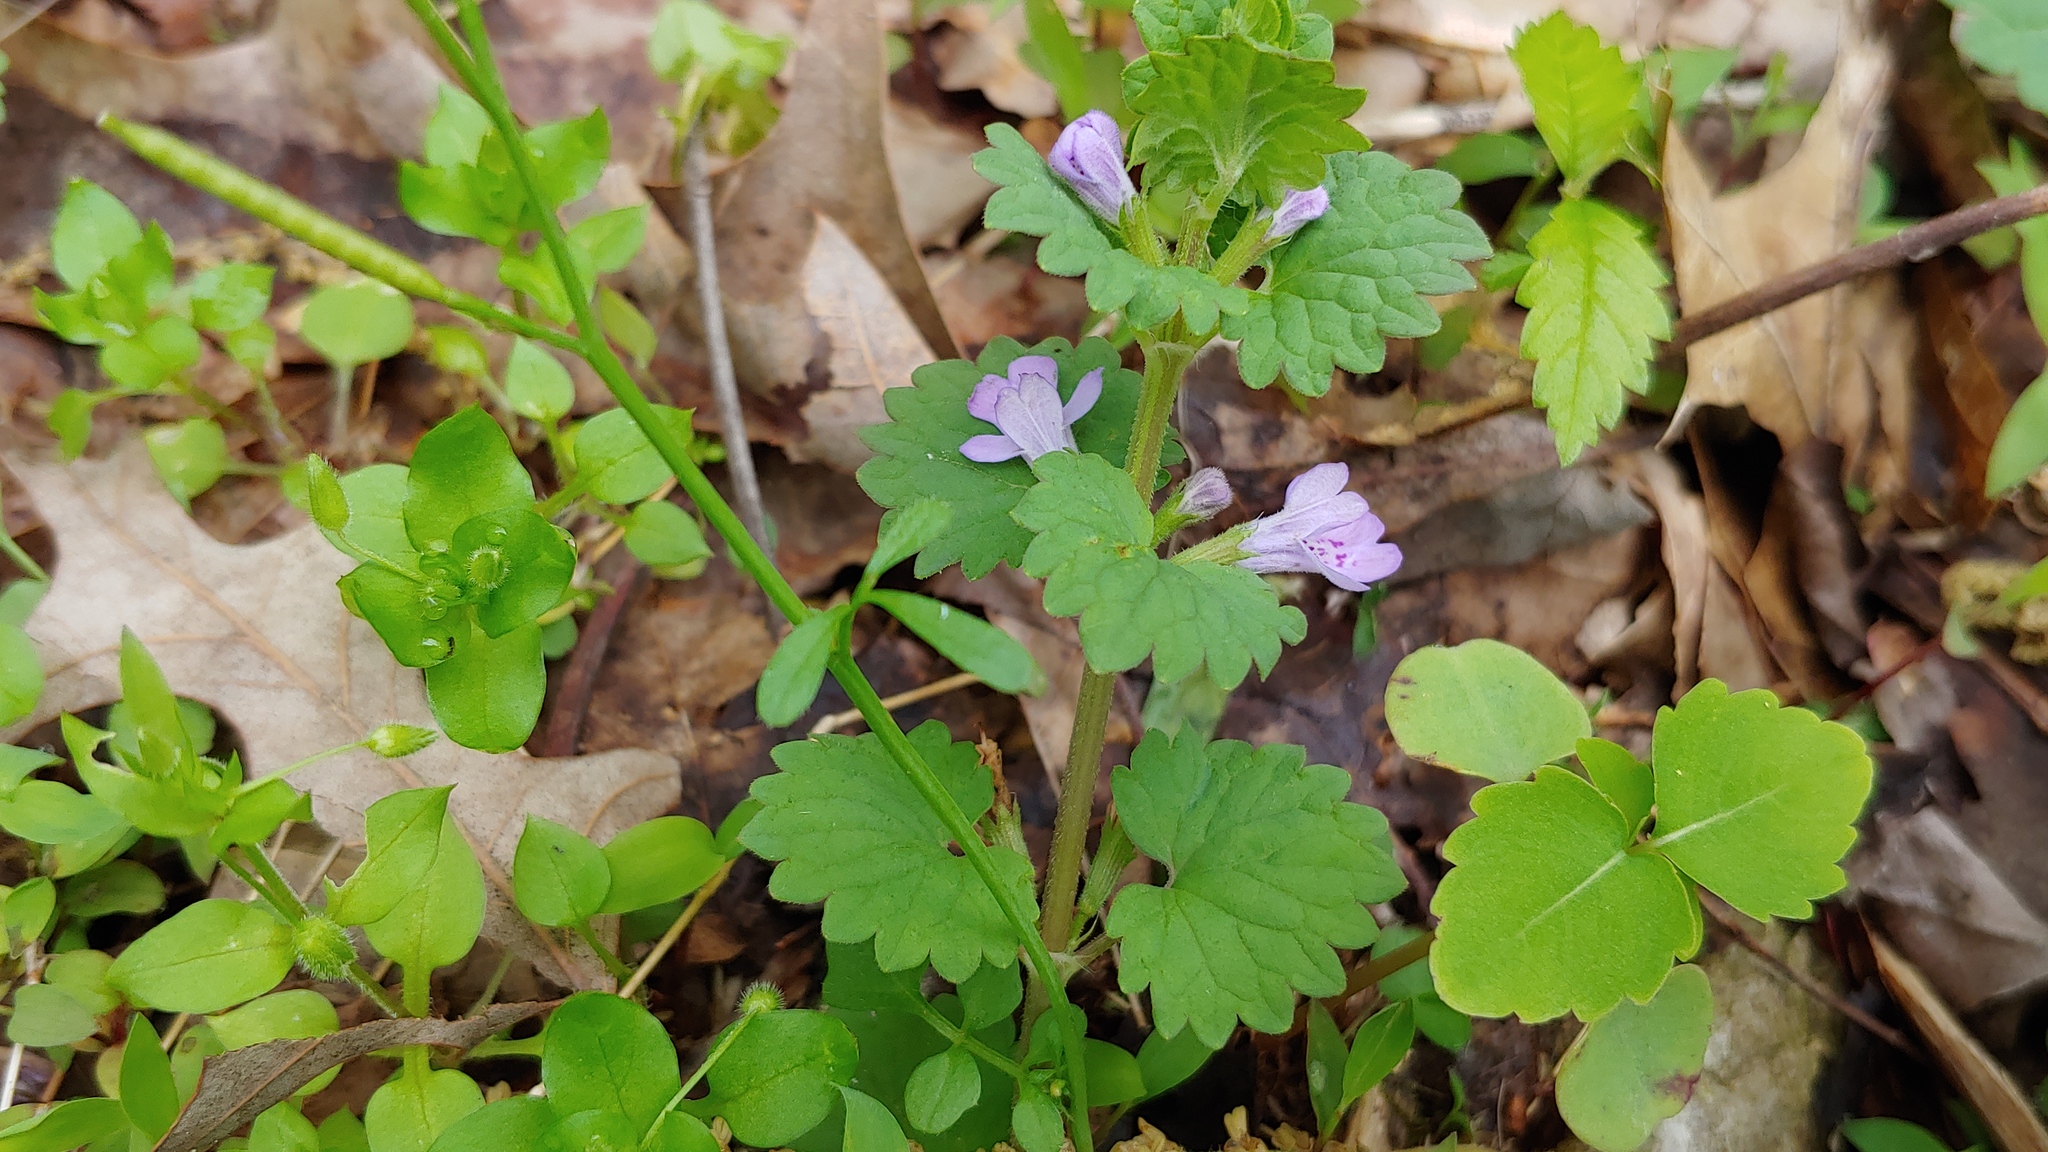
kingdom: Plantae
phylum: Tracheophyta
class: Magnoliopsida
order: Lamiales
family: Lamiaceae
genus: Glechoma
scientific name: Glechoma hederacea
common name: Ground ivy
